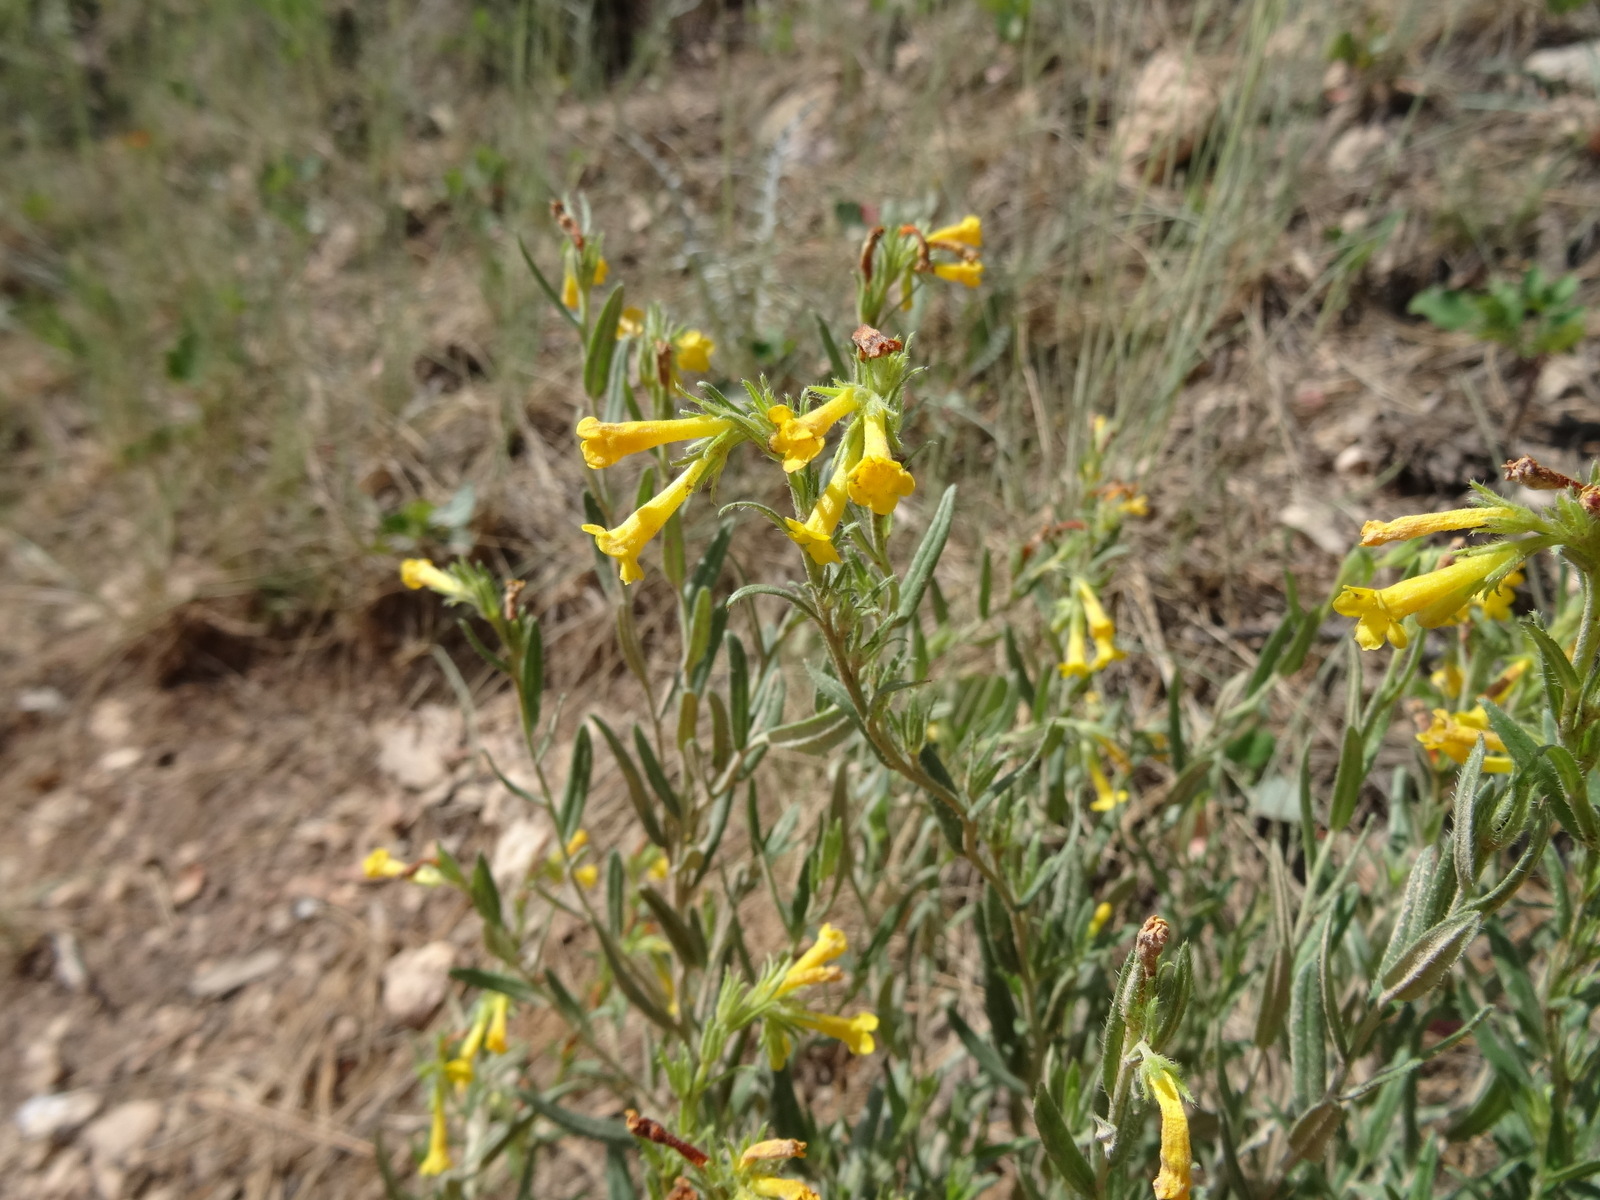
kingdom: Plantae
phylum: Tracheophyta
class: Magnoliopsida
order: Boraginales
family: Boraginaceae
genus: Lithospermum
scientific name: Lithospermum multiflorum
